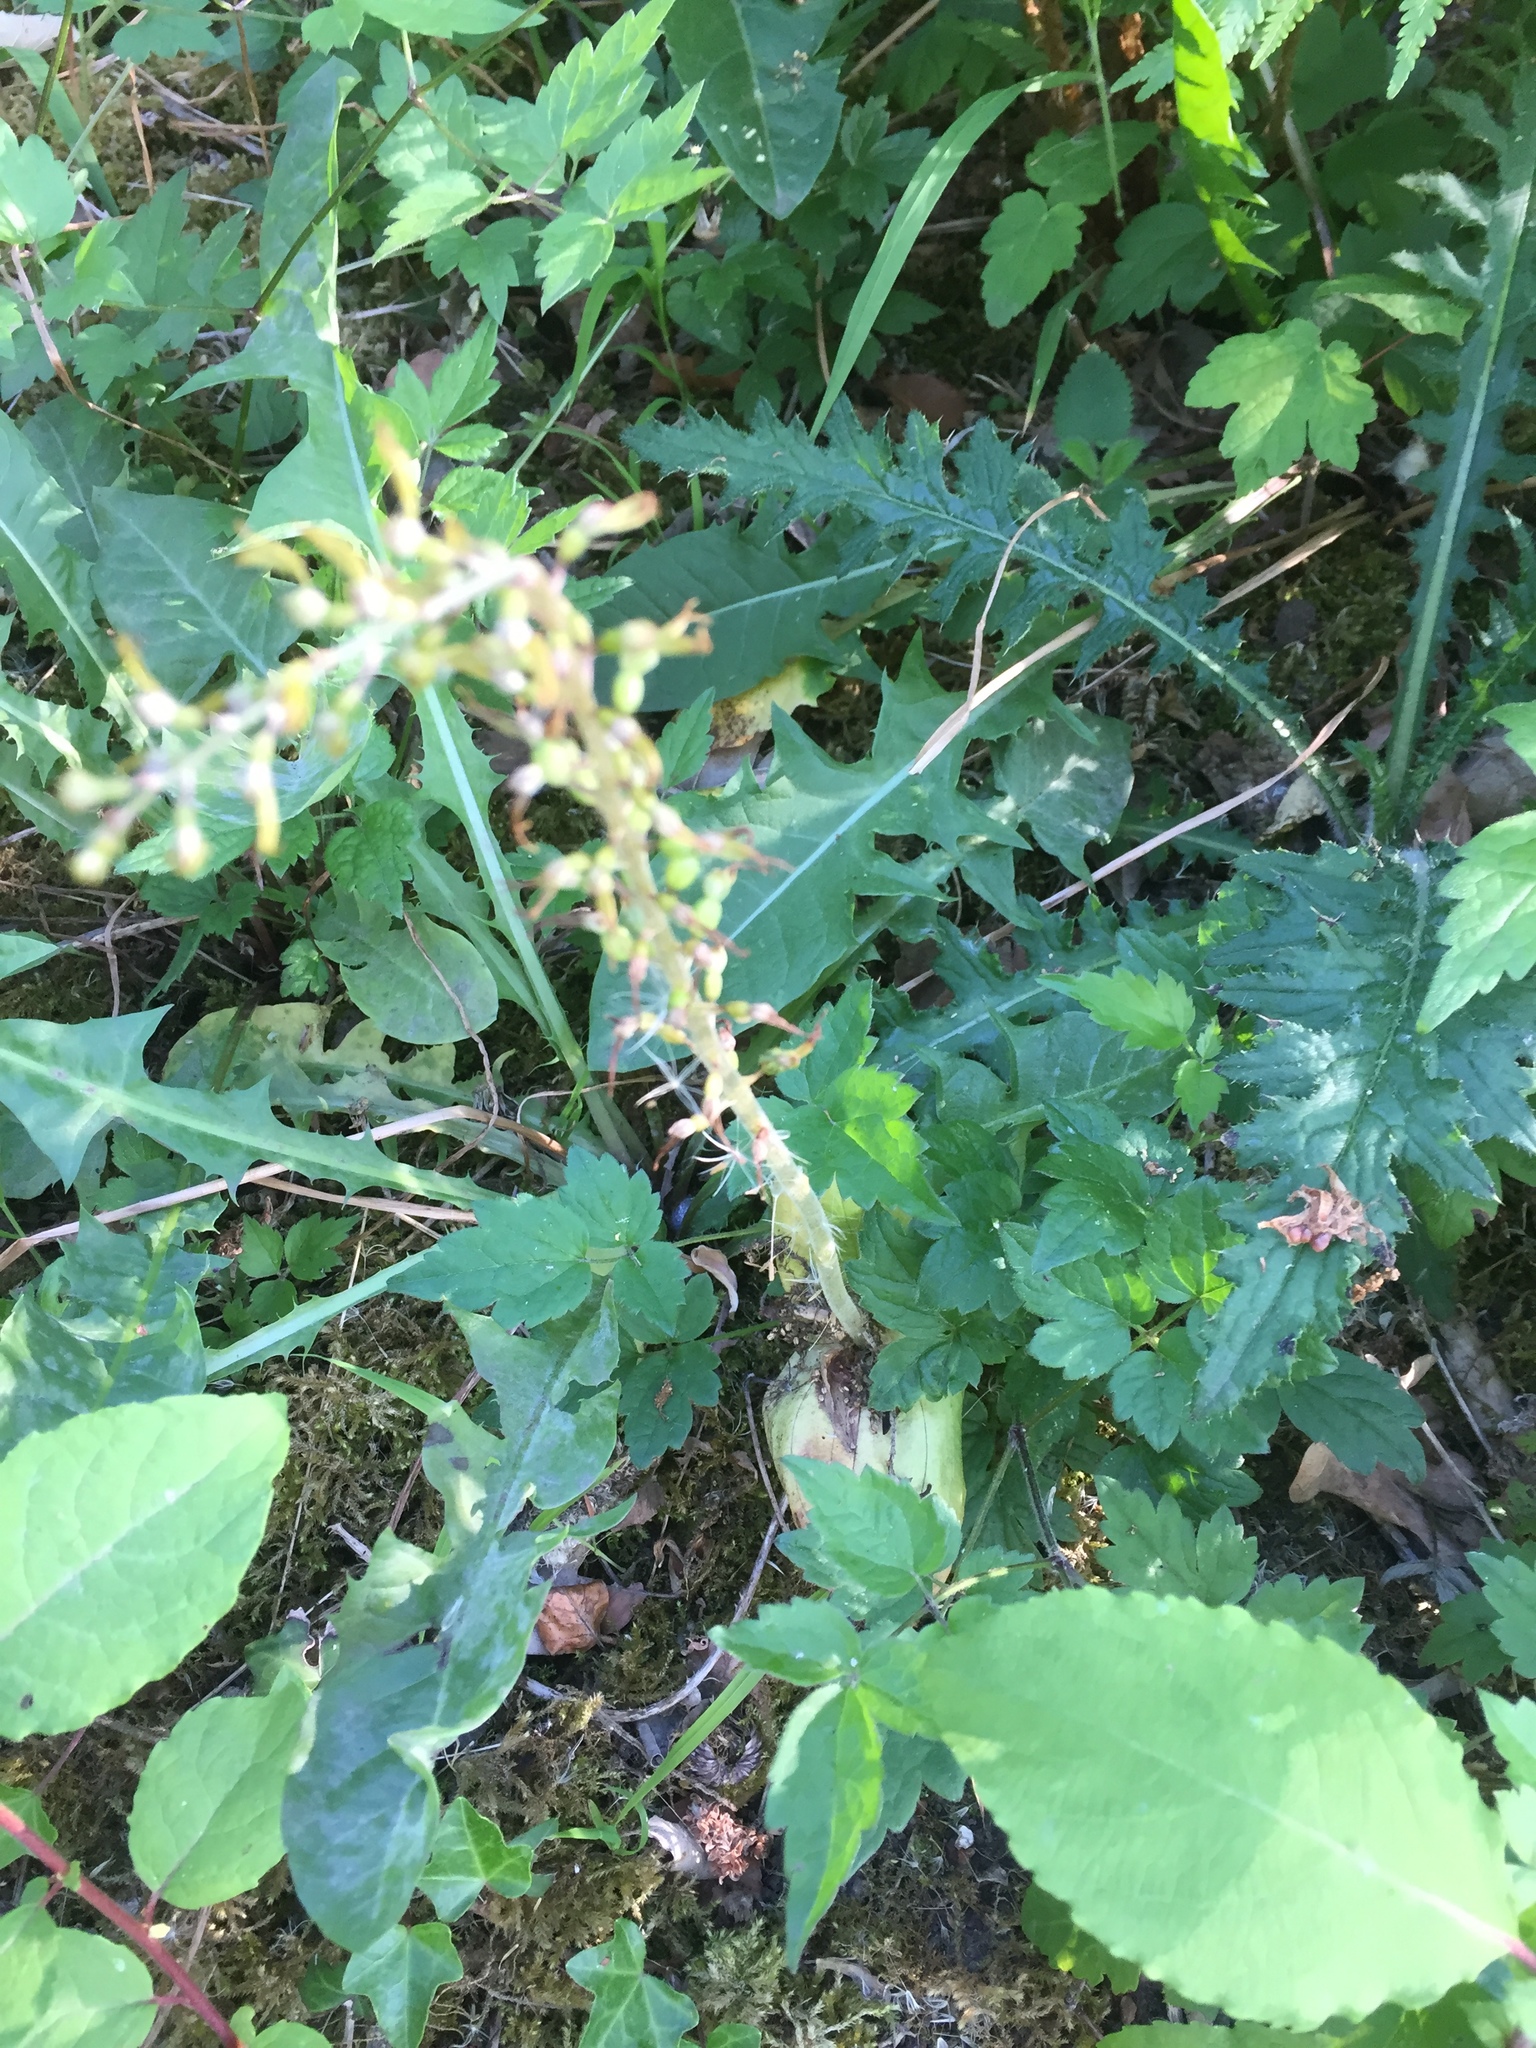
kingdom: Plantae
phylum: Tracheophyta
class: Liliopsida
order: Asparagales
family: Orchidaceae
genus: Neottia
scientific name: Neottia ovata
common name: Common twayblade
